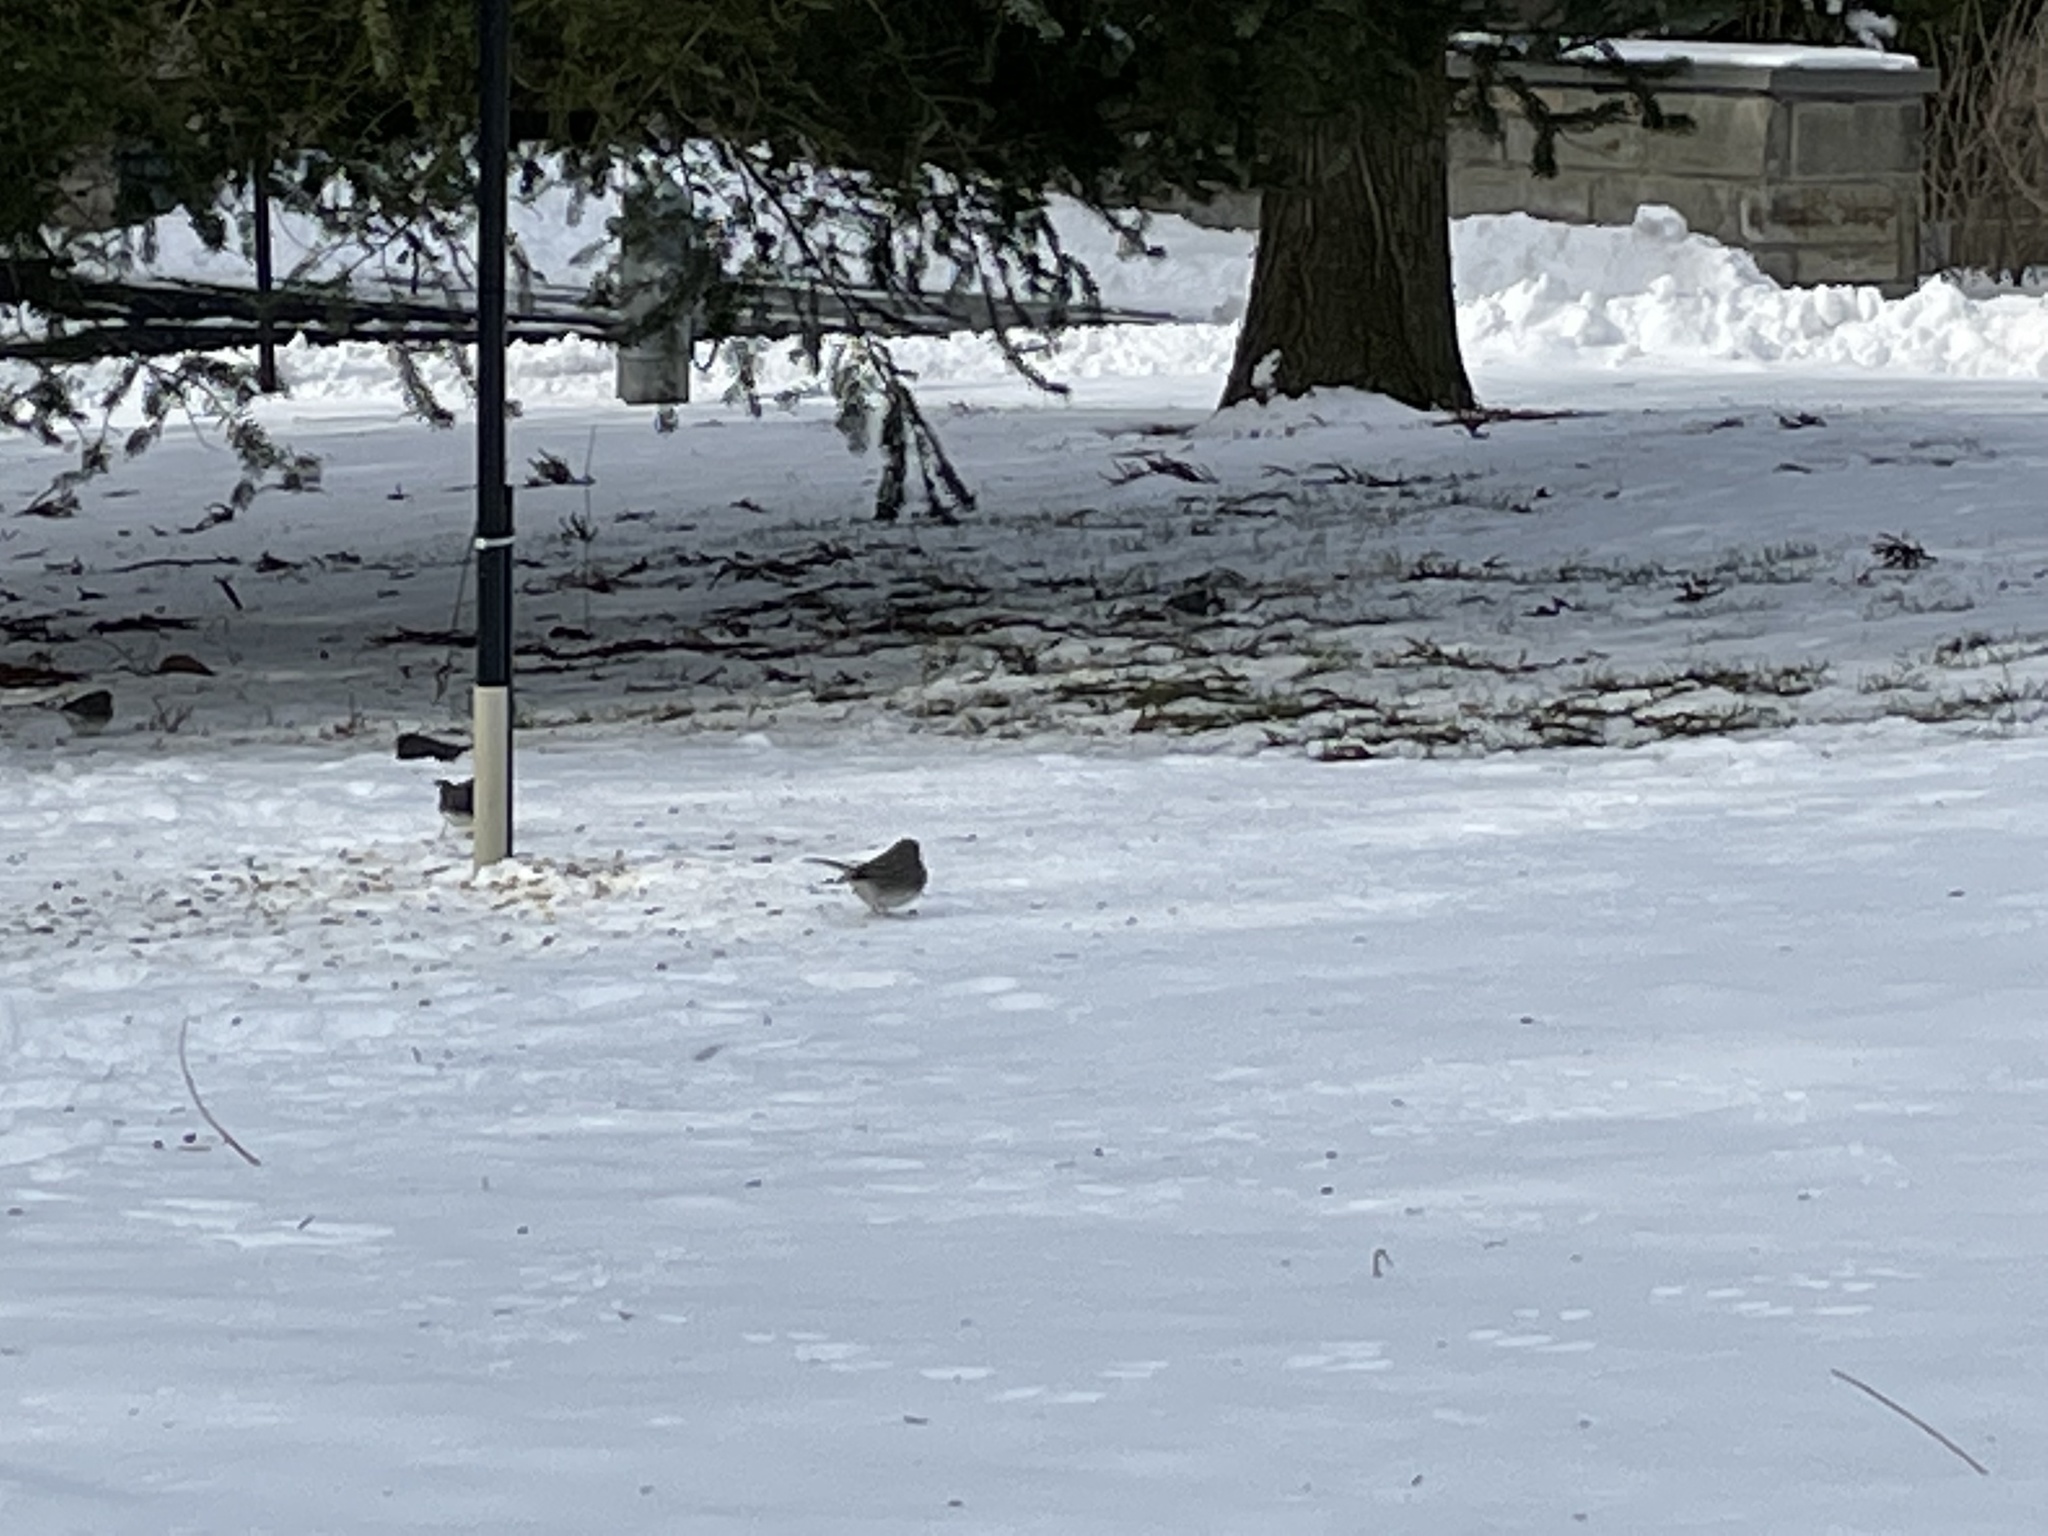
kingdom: Animalia
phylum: Chordata
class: Aves
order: Passeriformes
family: Passerellidae
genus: Junco
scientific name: Junco hyemalis
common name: Dark-eyed junco
